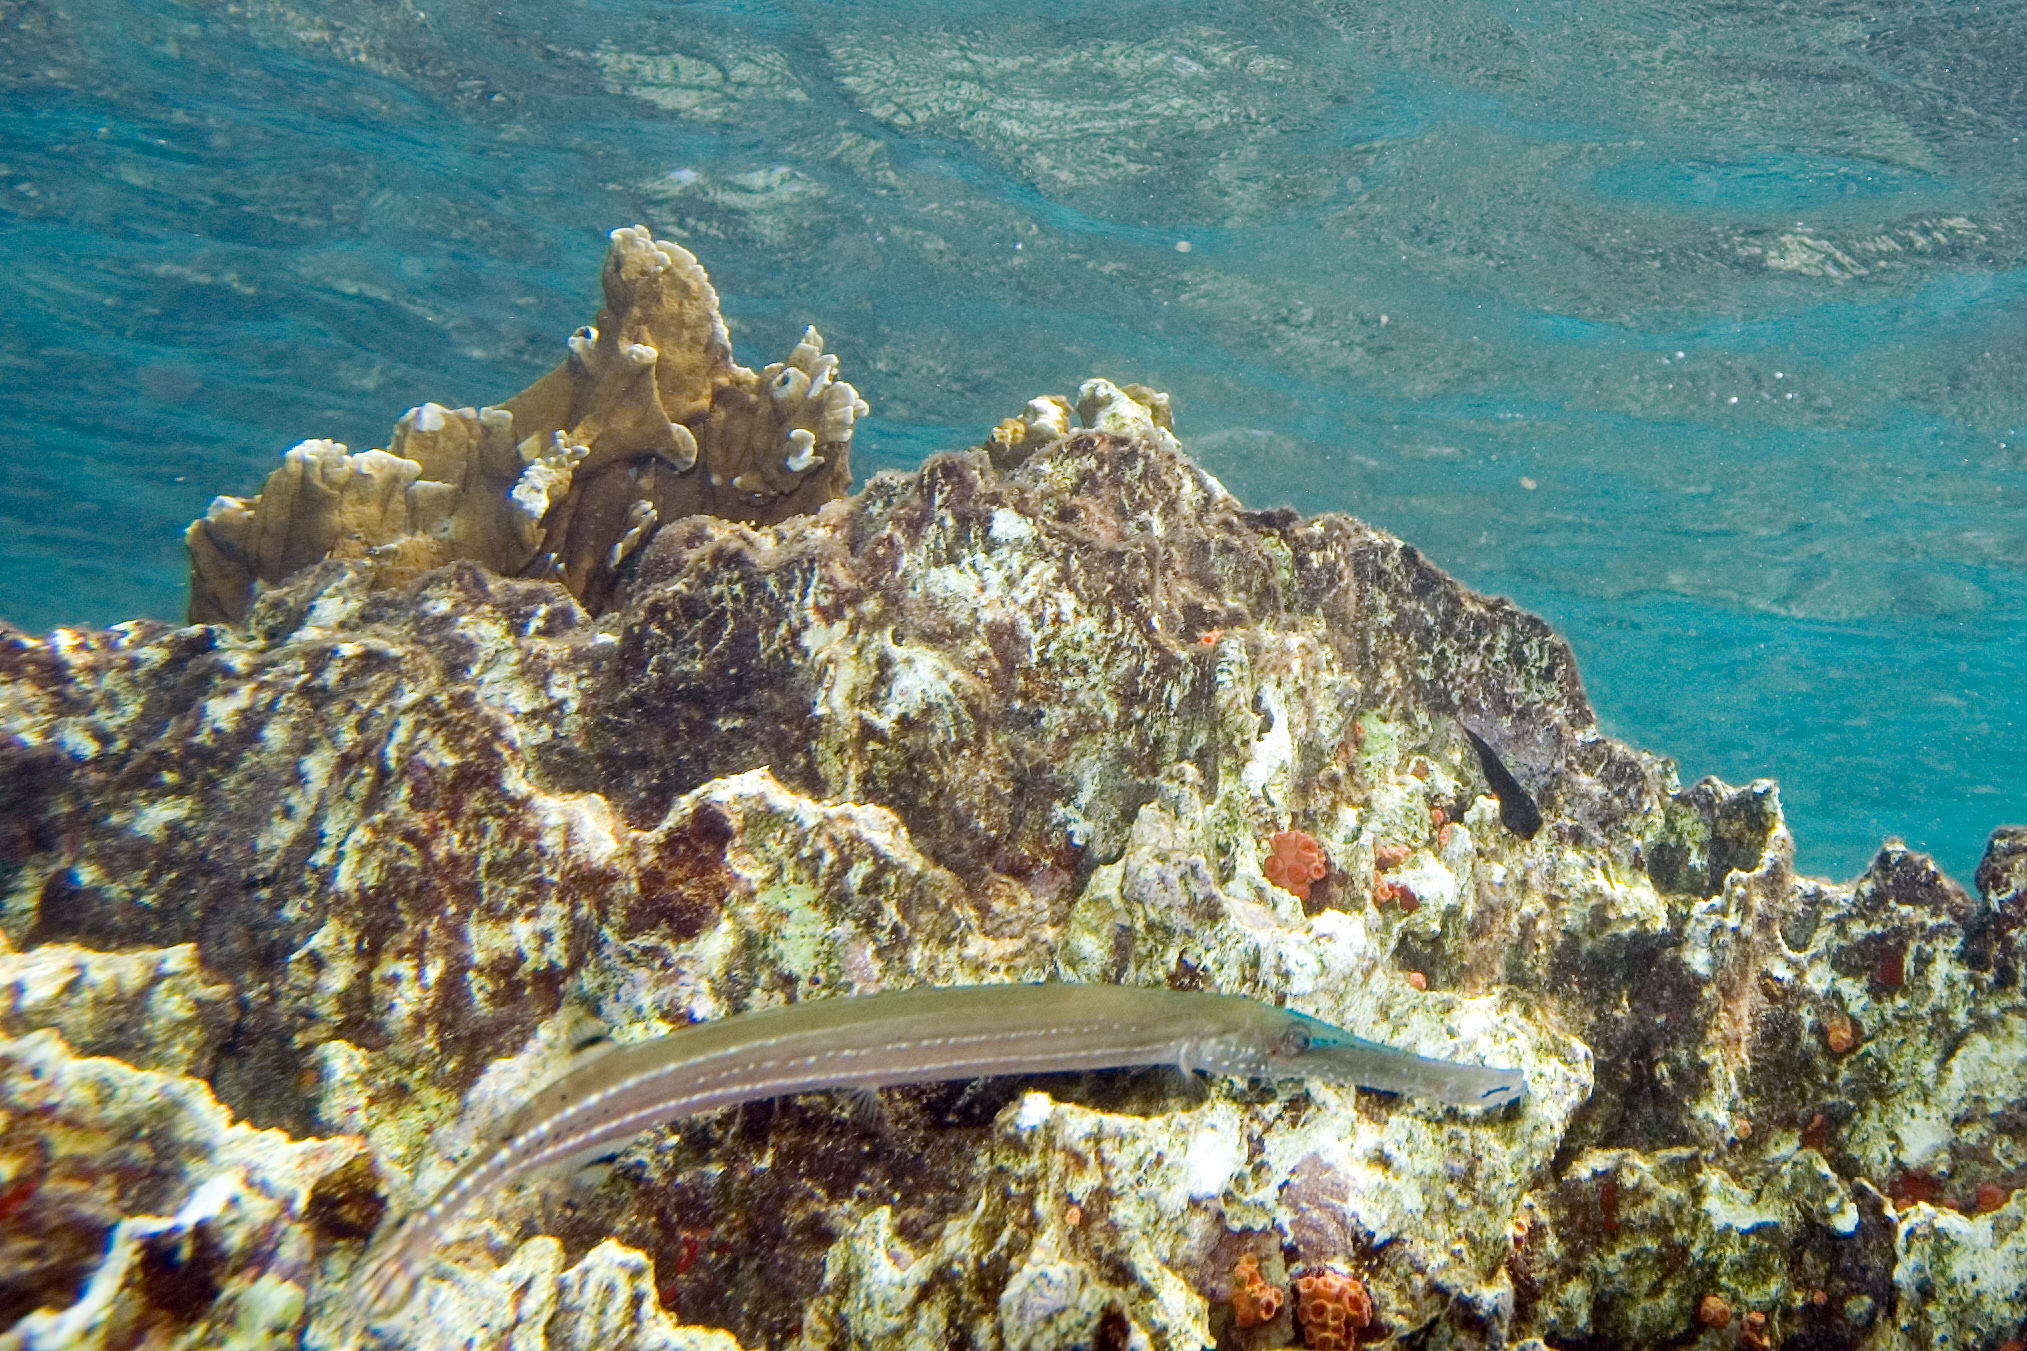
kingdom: Animalia
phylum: Chordata
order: Syngnathiformes
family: Aulostomidae
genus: Aulostomus
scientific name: Aulostomus maculatus
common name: West atlantic trumpetfish
